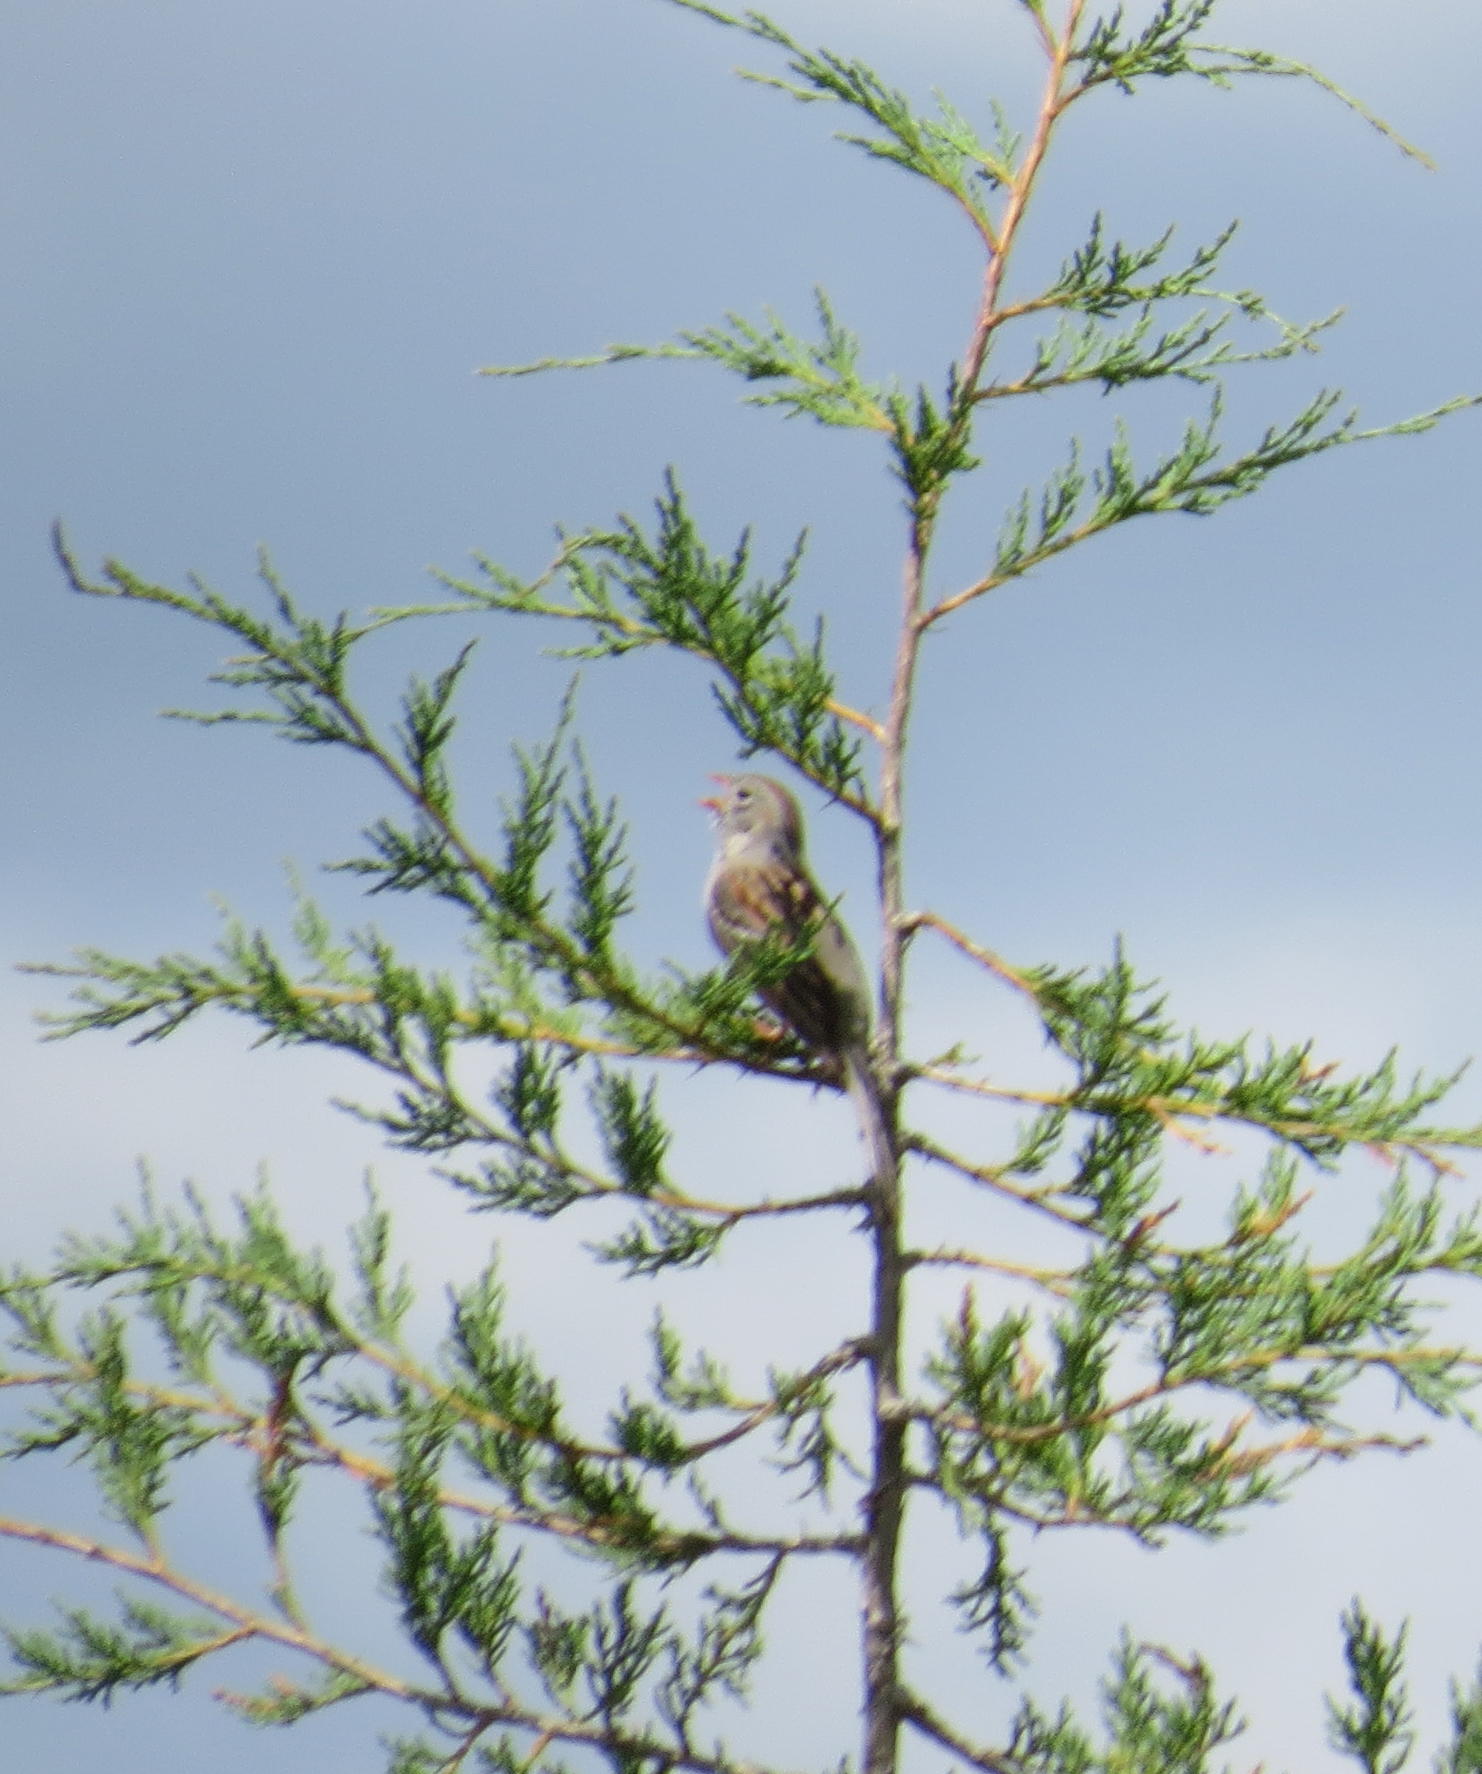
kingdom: Animalia
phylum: Chordata
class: Aves
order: Passeriformes
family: Passerellidae
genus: Spizella
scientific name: Spizella pusilla
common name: Field sparrow
